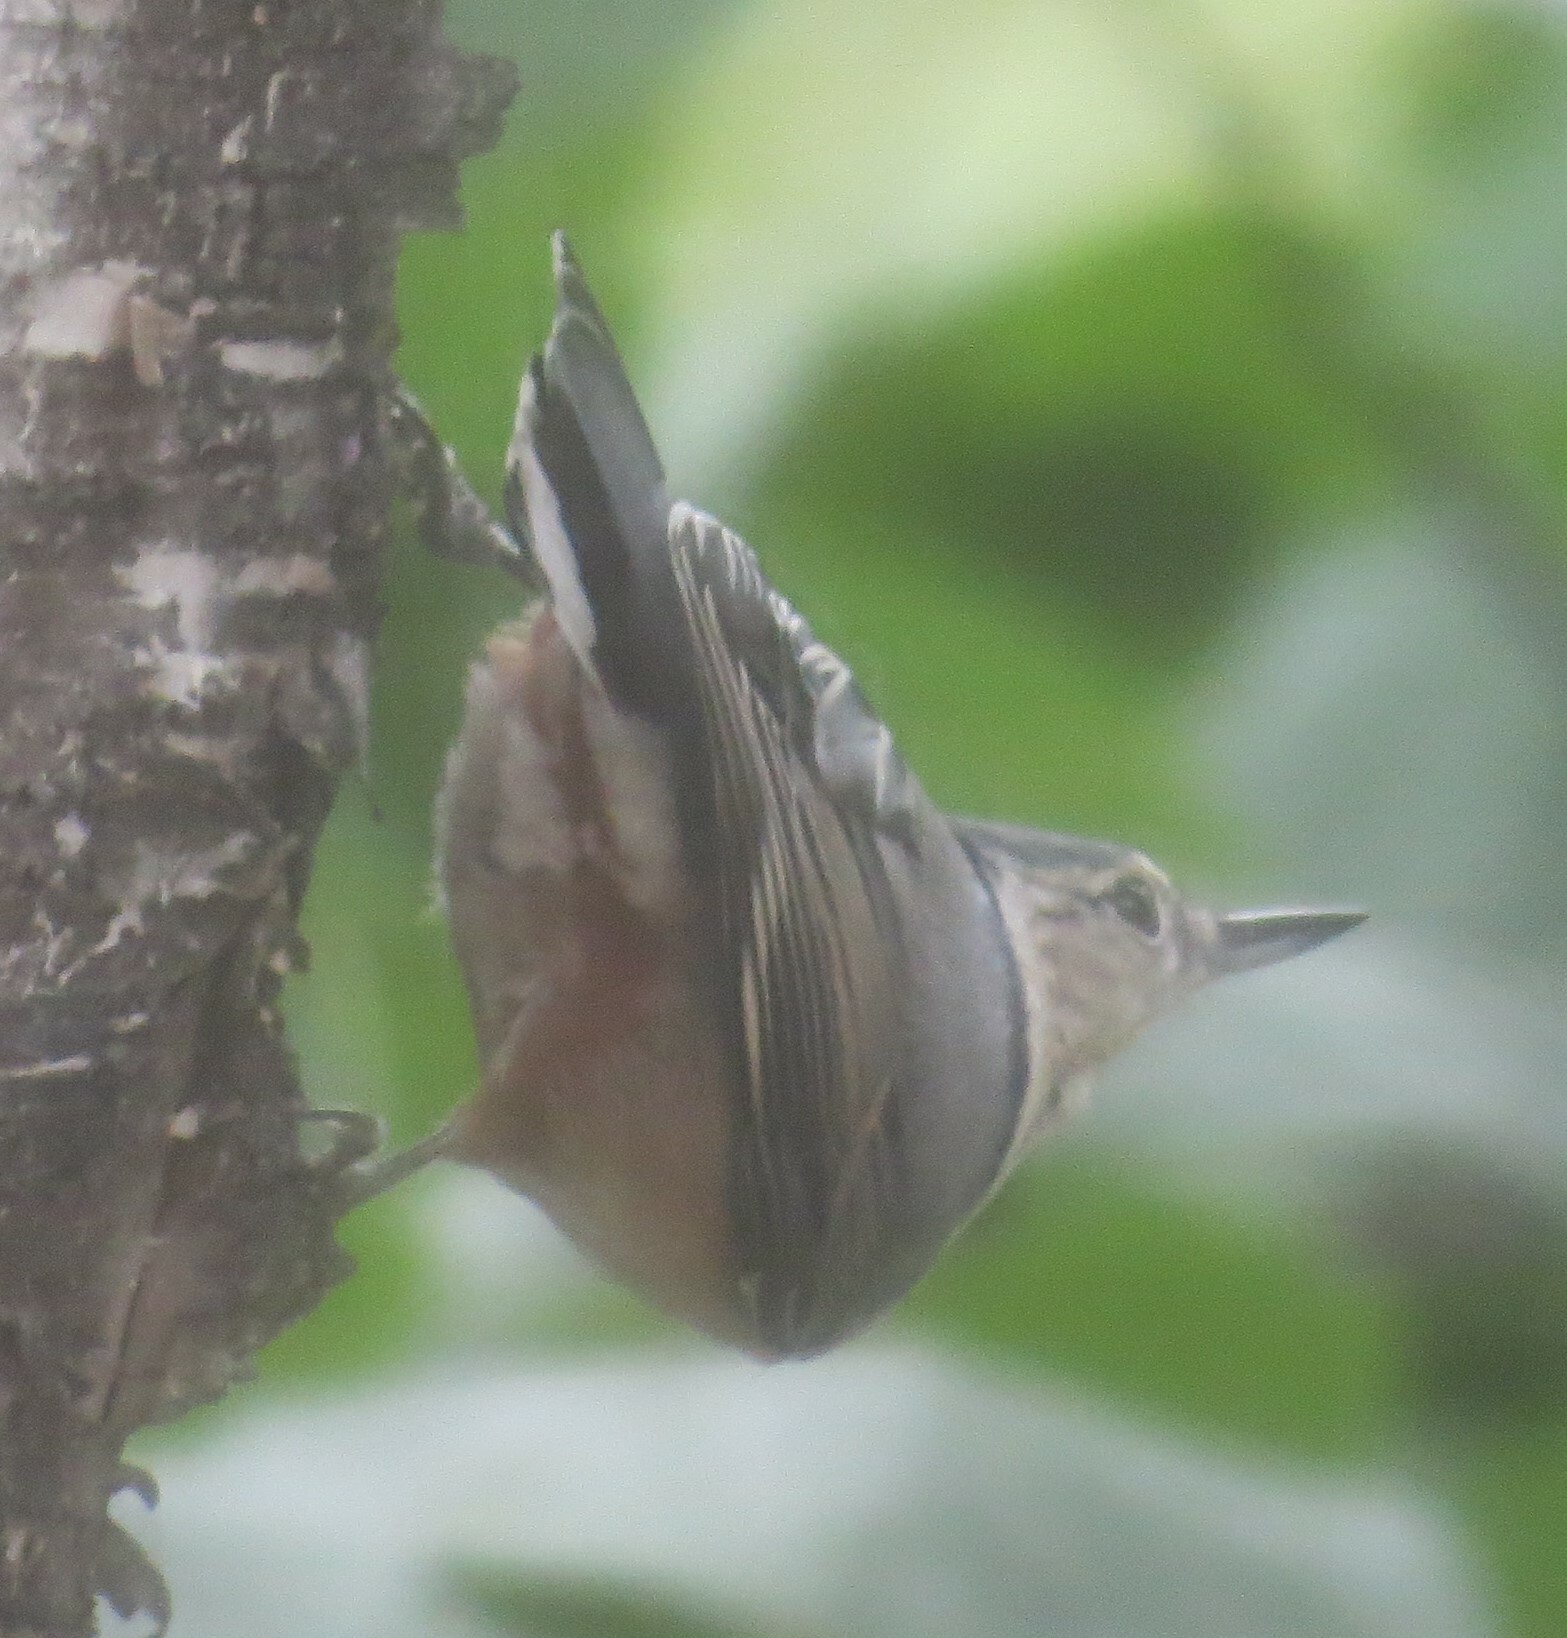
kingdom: Animalia
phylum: Chordata
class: Aves
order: Passeriformes
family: Sittidae
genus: Sitta
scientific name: Sitta carolinensis
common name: White-breasted nuthatch
